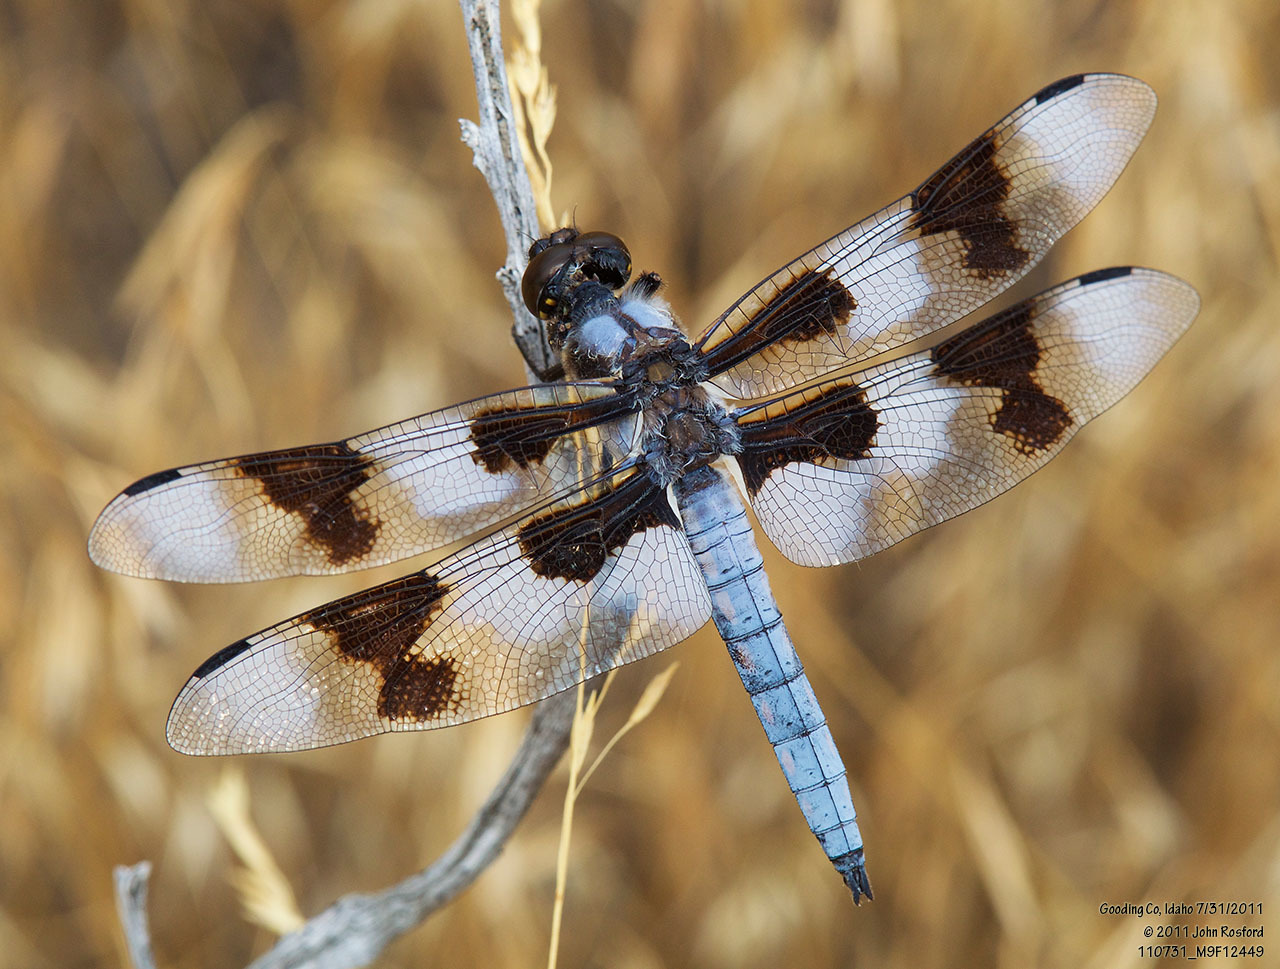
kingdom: Animalia
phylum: Arthropoda
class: Insecta
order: Odonata
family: Libellulidae
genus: Libellula
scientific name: Libellula forensis
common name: Eight-spotted skimmer
